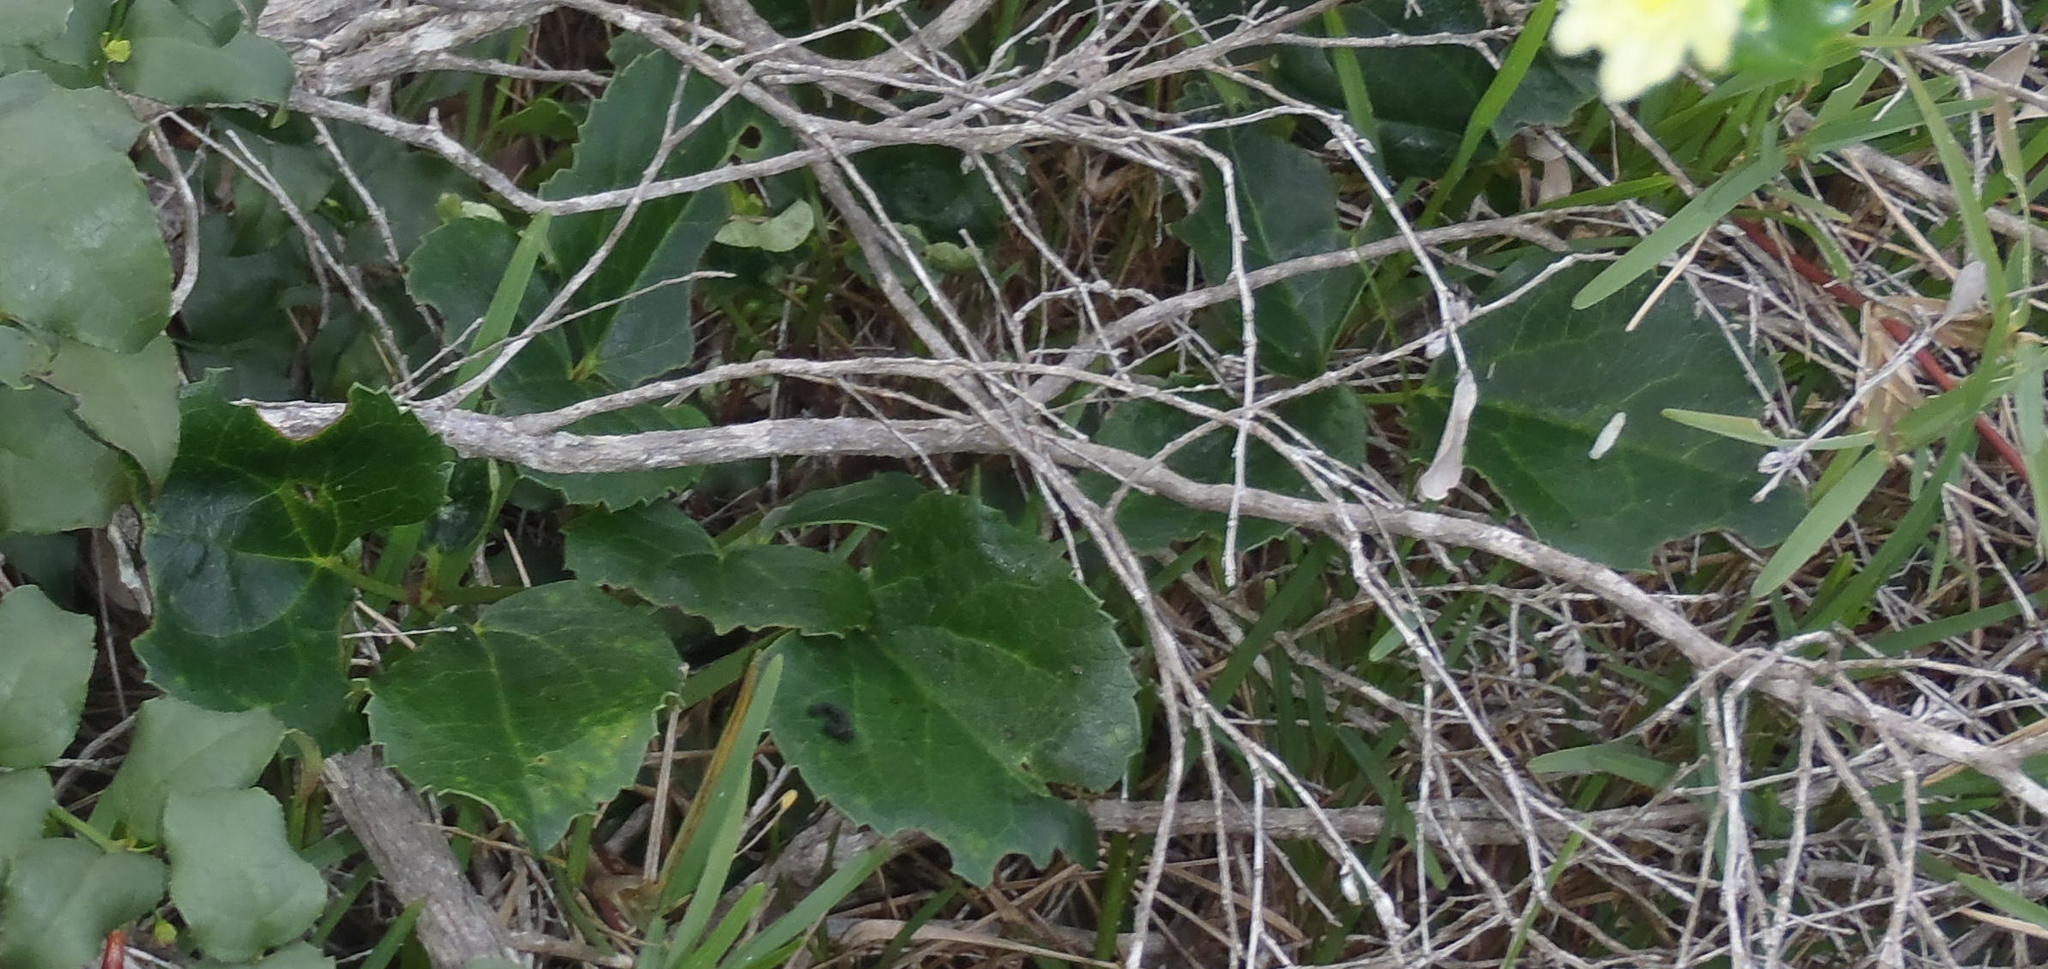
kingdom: Plantae
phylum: Tracheophyta
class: Magnoliopsida
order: Ranunculales
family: Ranunculaceae
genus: Knowltonia
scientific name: Knowltonia vesicatoria
